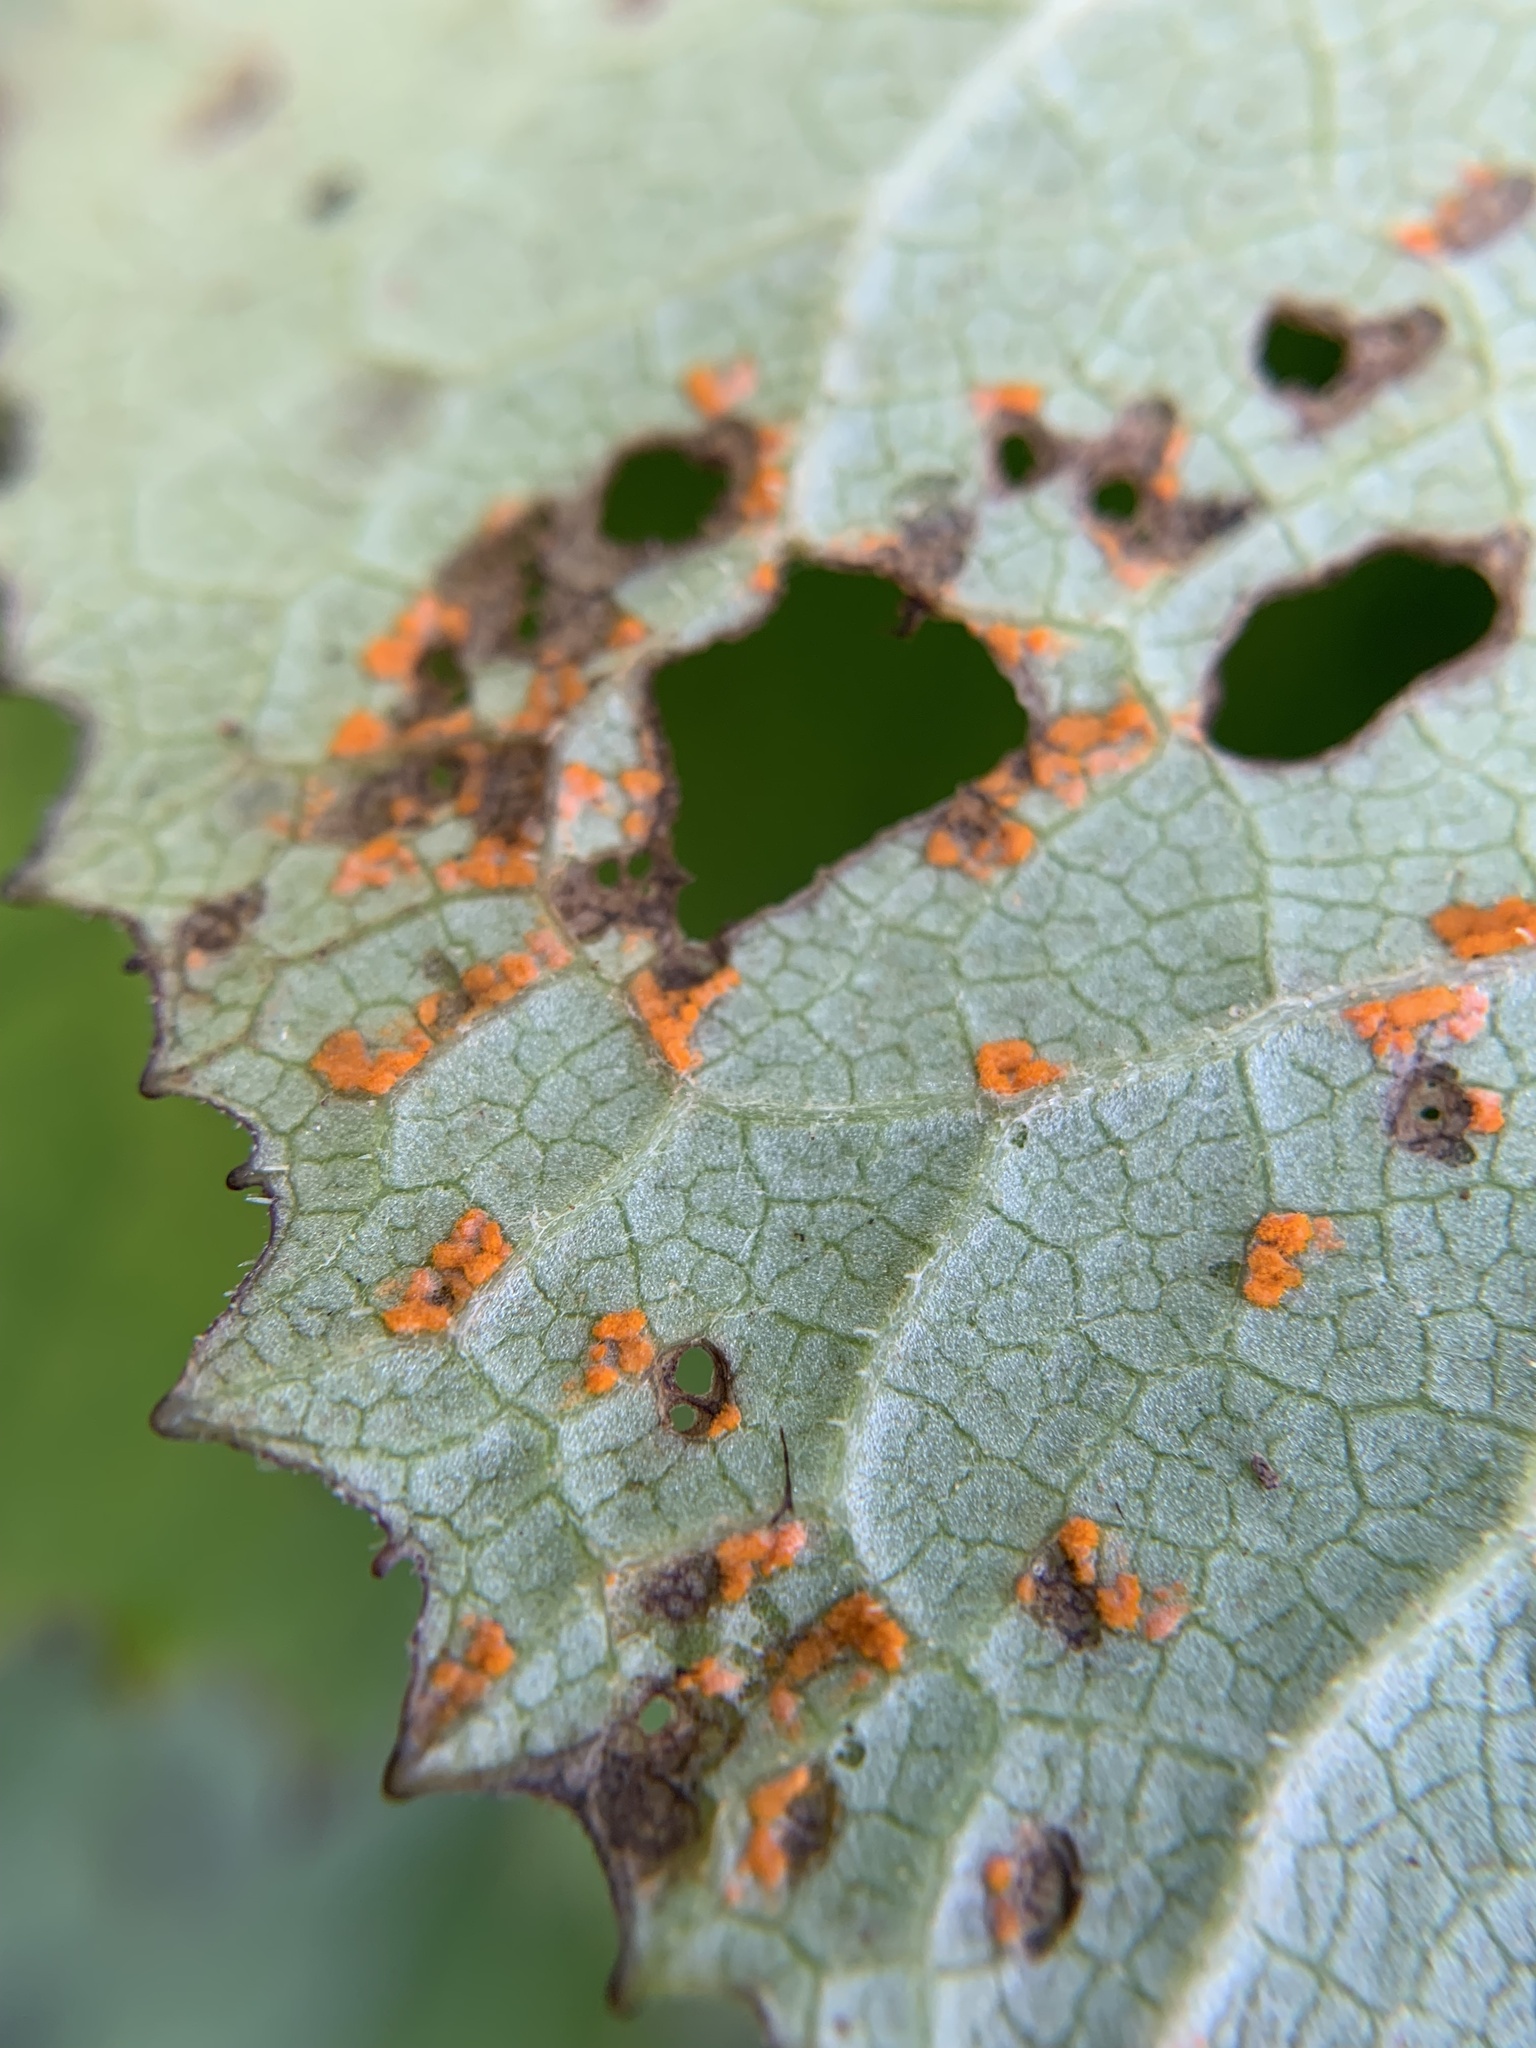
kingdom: Fungi
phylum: Basidiomycota
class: Pucciniomycetes
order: Pucciniales
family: Coleosporiaceae
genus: Coleosporium
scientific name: Coleosporium tussilaginis
